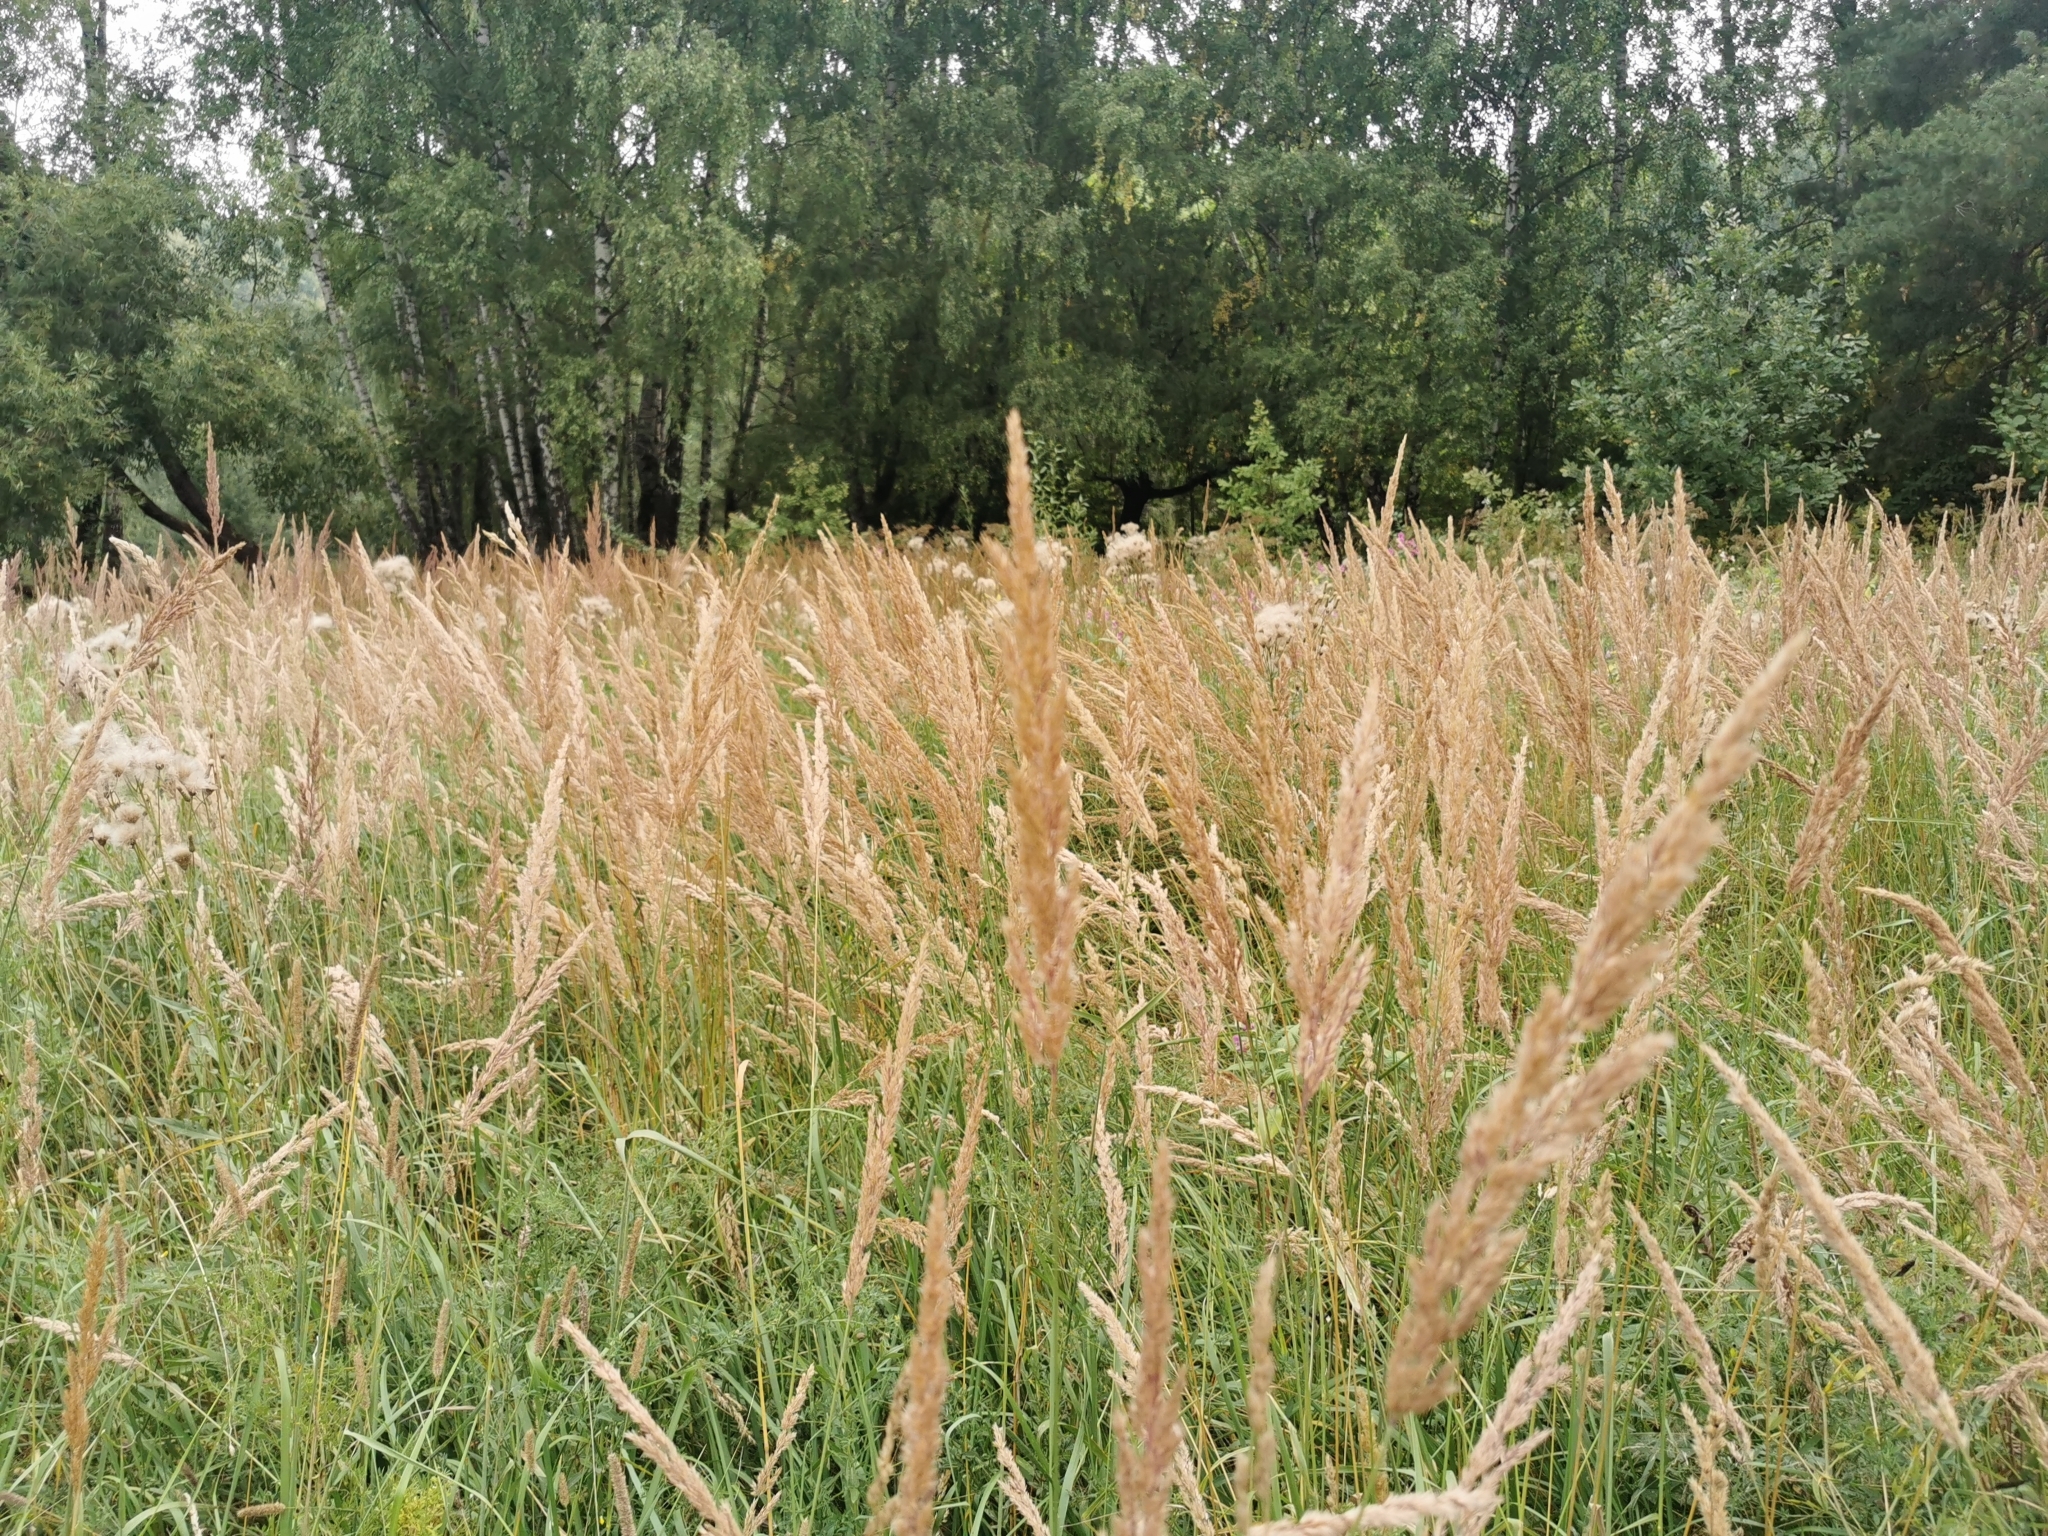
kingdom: Plantae
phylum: Tracheophyta
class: Liliopsida
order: Poales
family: Poaceae
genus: Calamagrostis
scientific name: Calamagrostis epigejos
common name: Wood small-reed
